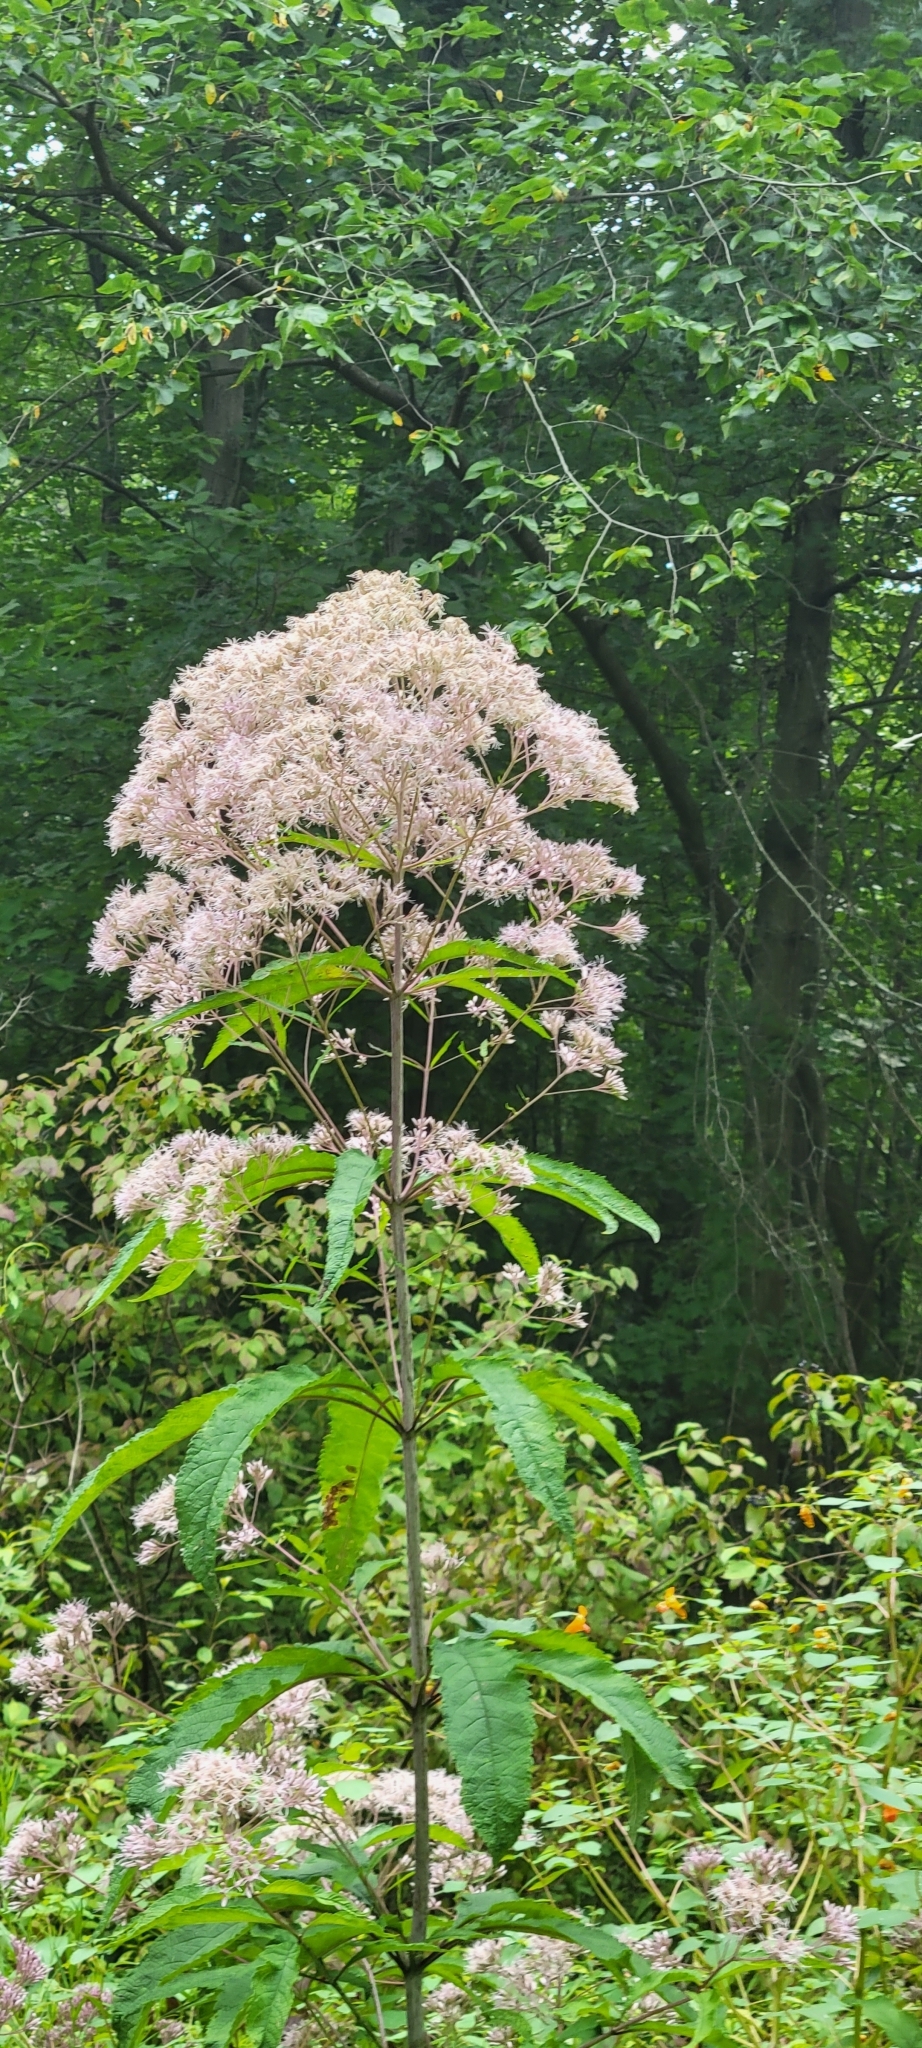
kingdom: Plantae
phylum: Tracheophyta
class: Magnoliopsida
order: Asterales
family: Asteraceae
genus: Eutrochium
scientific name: Eutrochium fistulosum
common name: Trumpetweed
